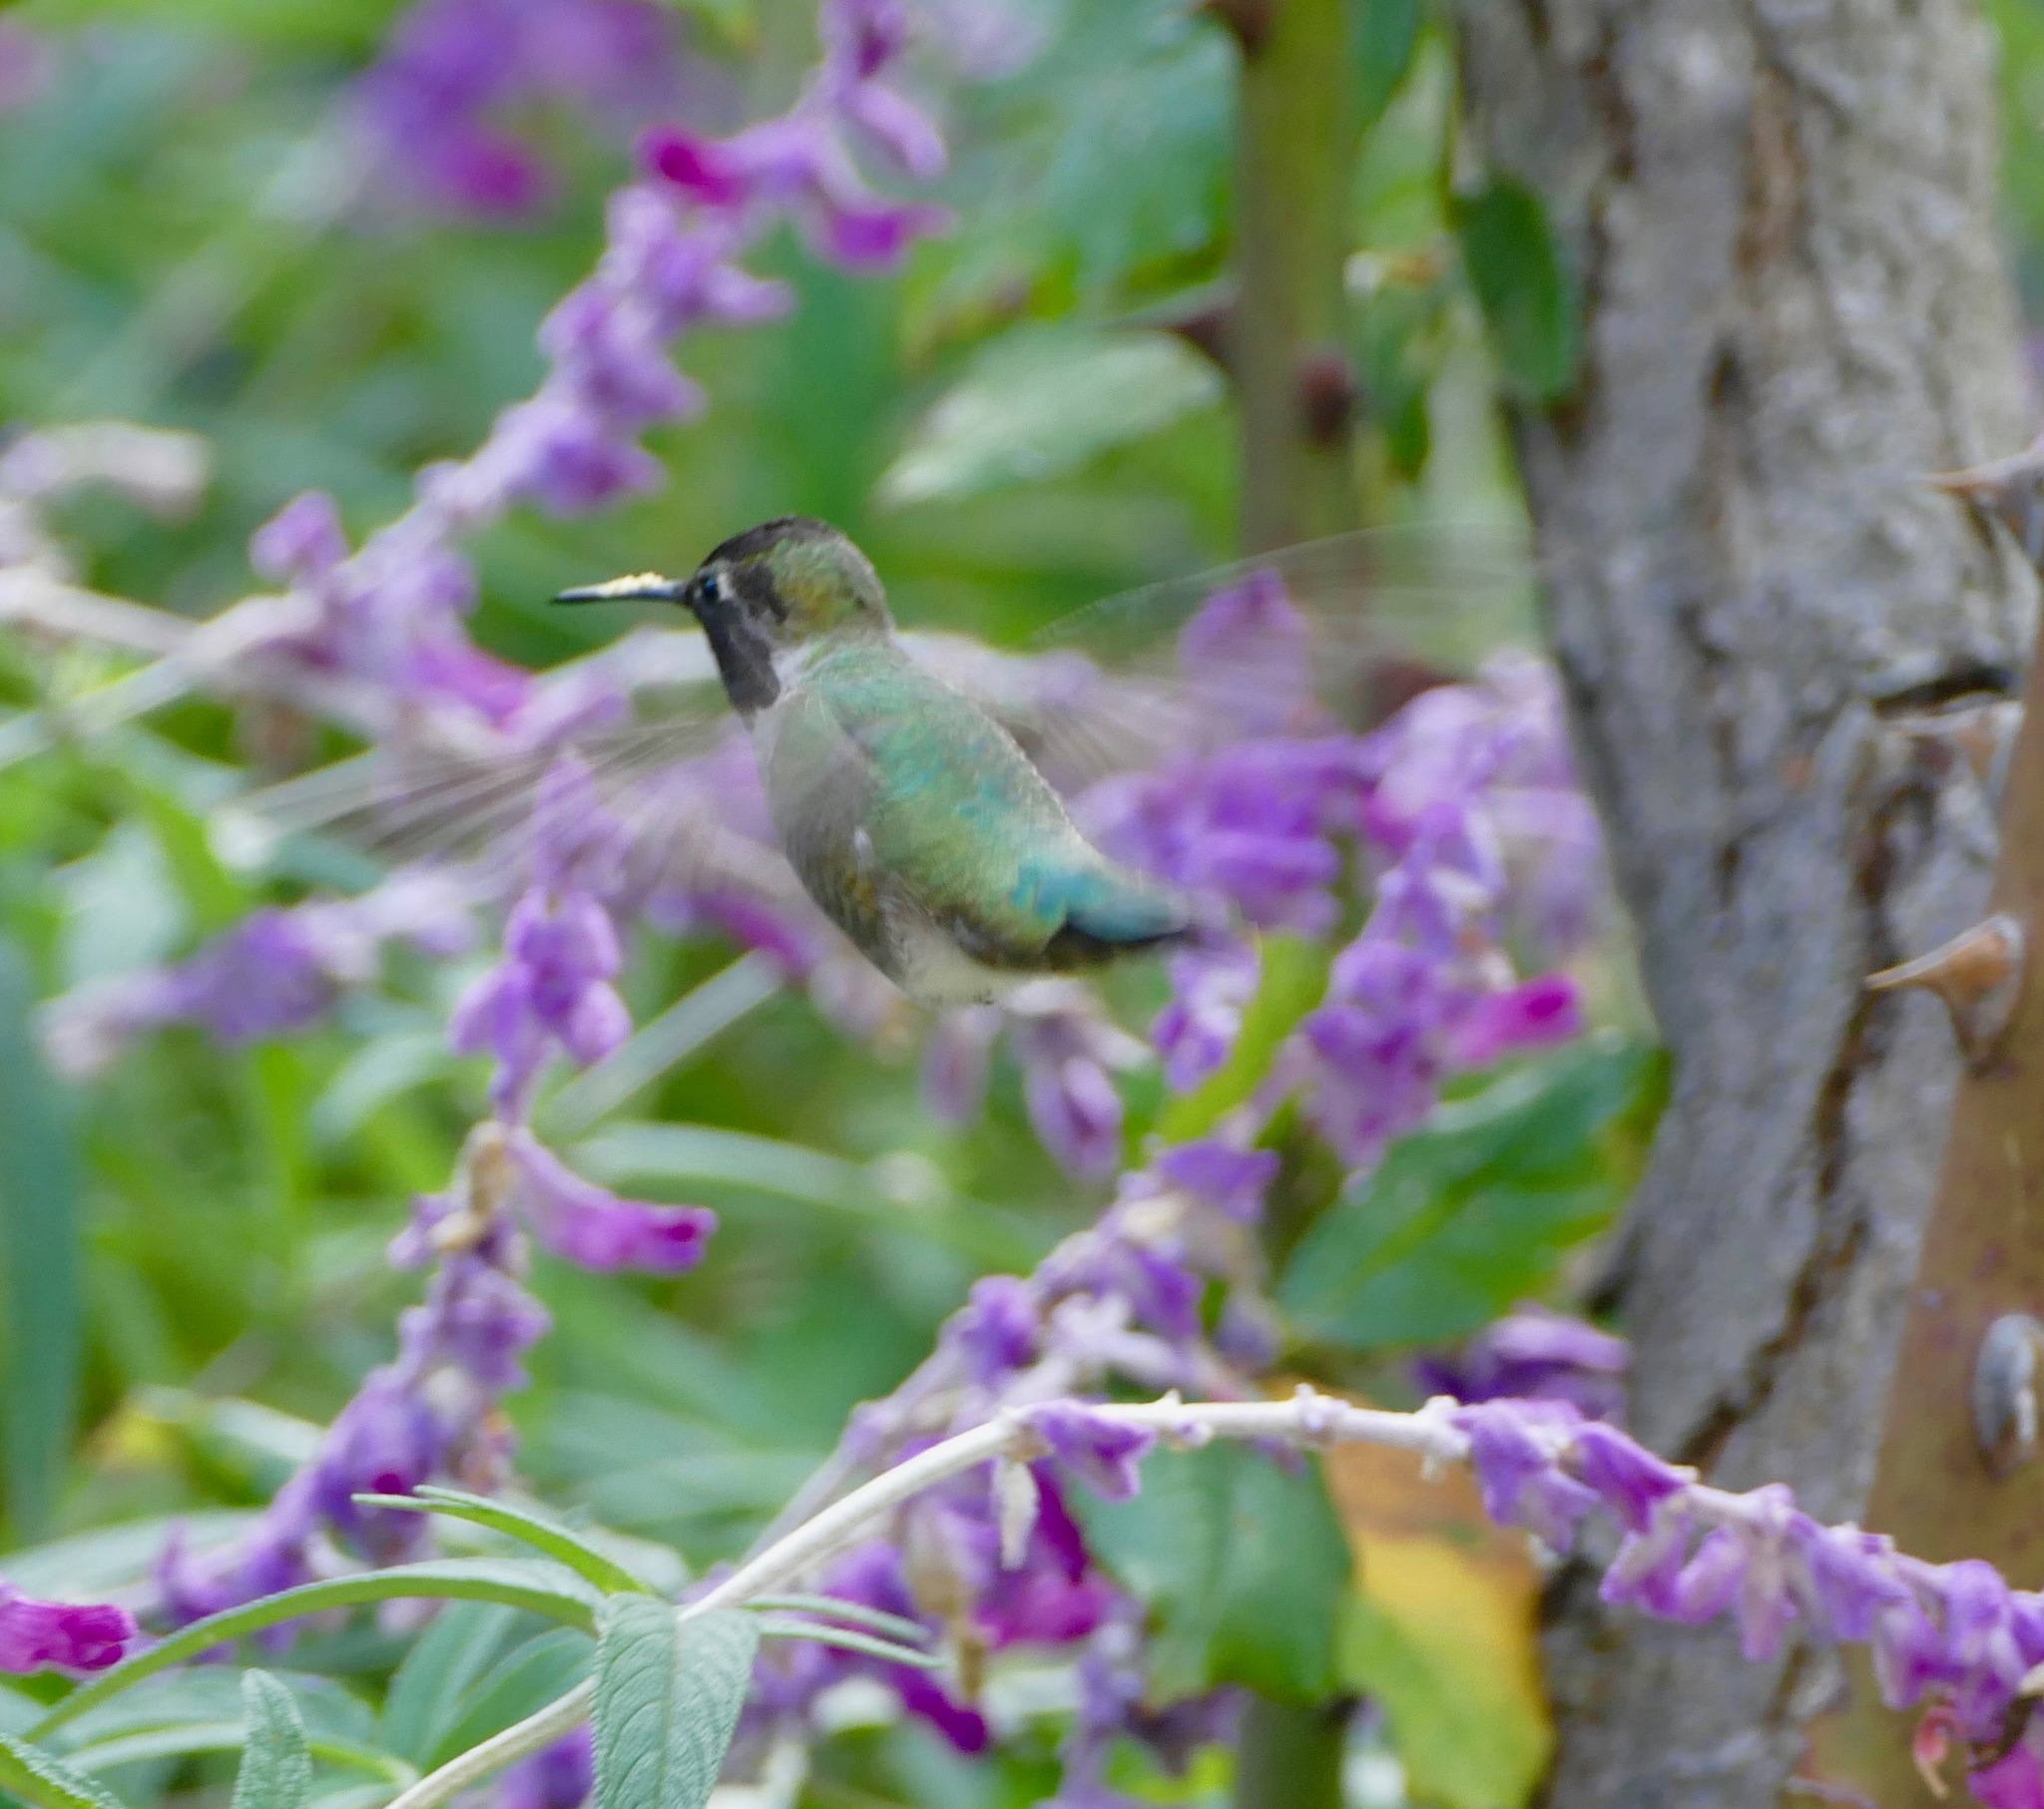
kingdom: Animalia
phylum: Chordata
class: Aves
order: Apodiformes
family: Trochilidae
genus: Calypte
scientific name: Calypte anna
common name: Anna's hummingbird
